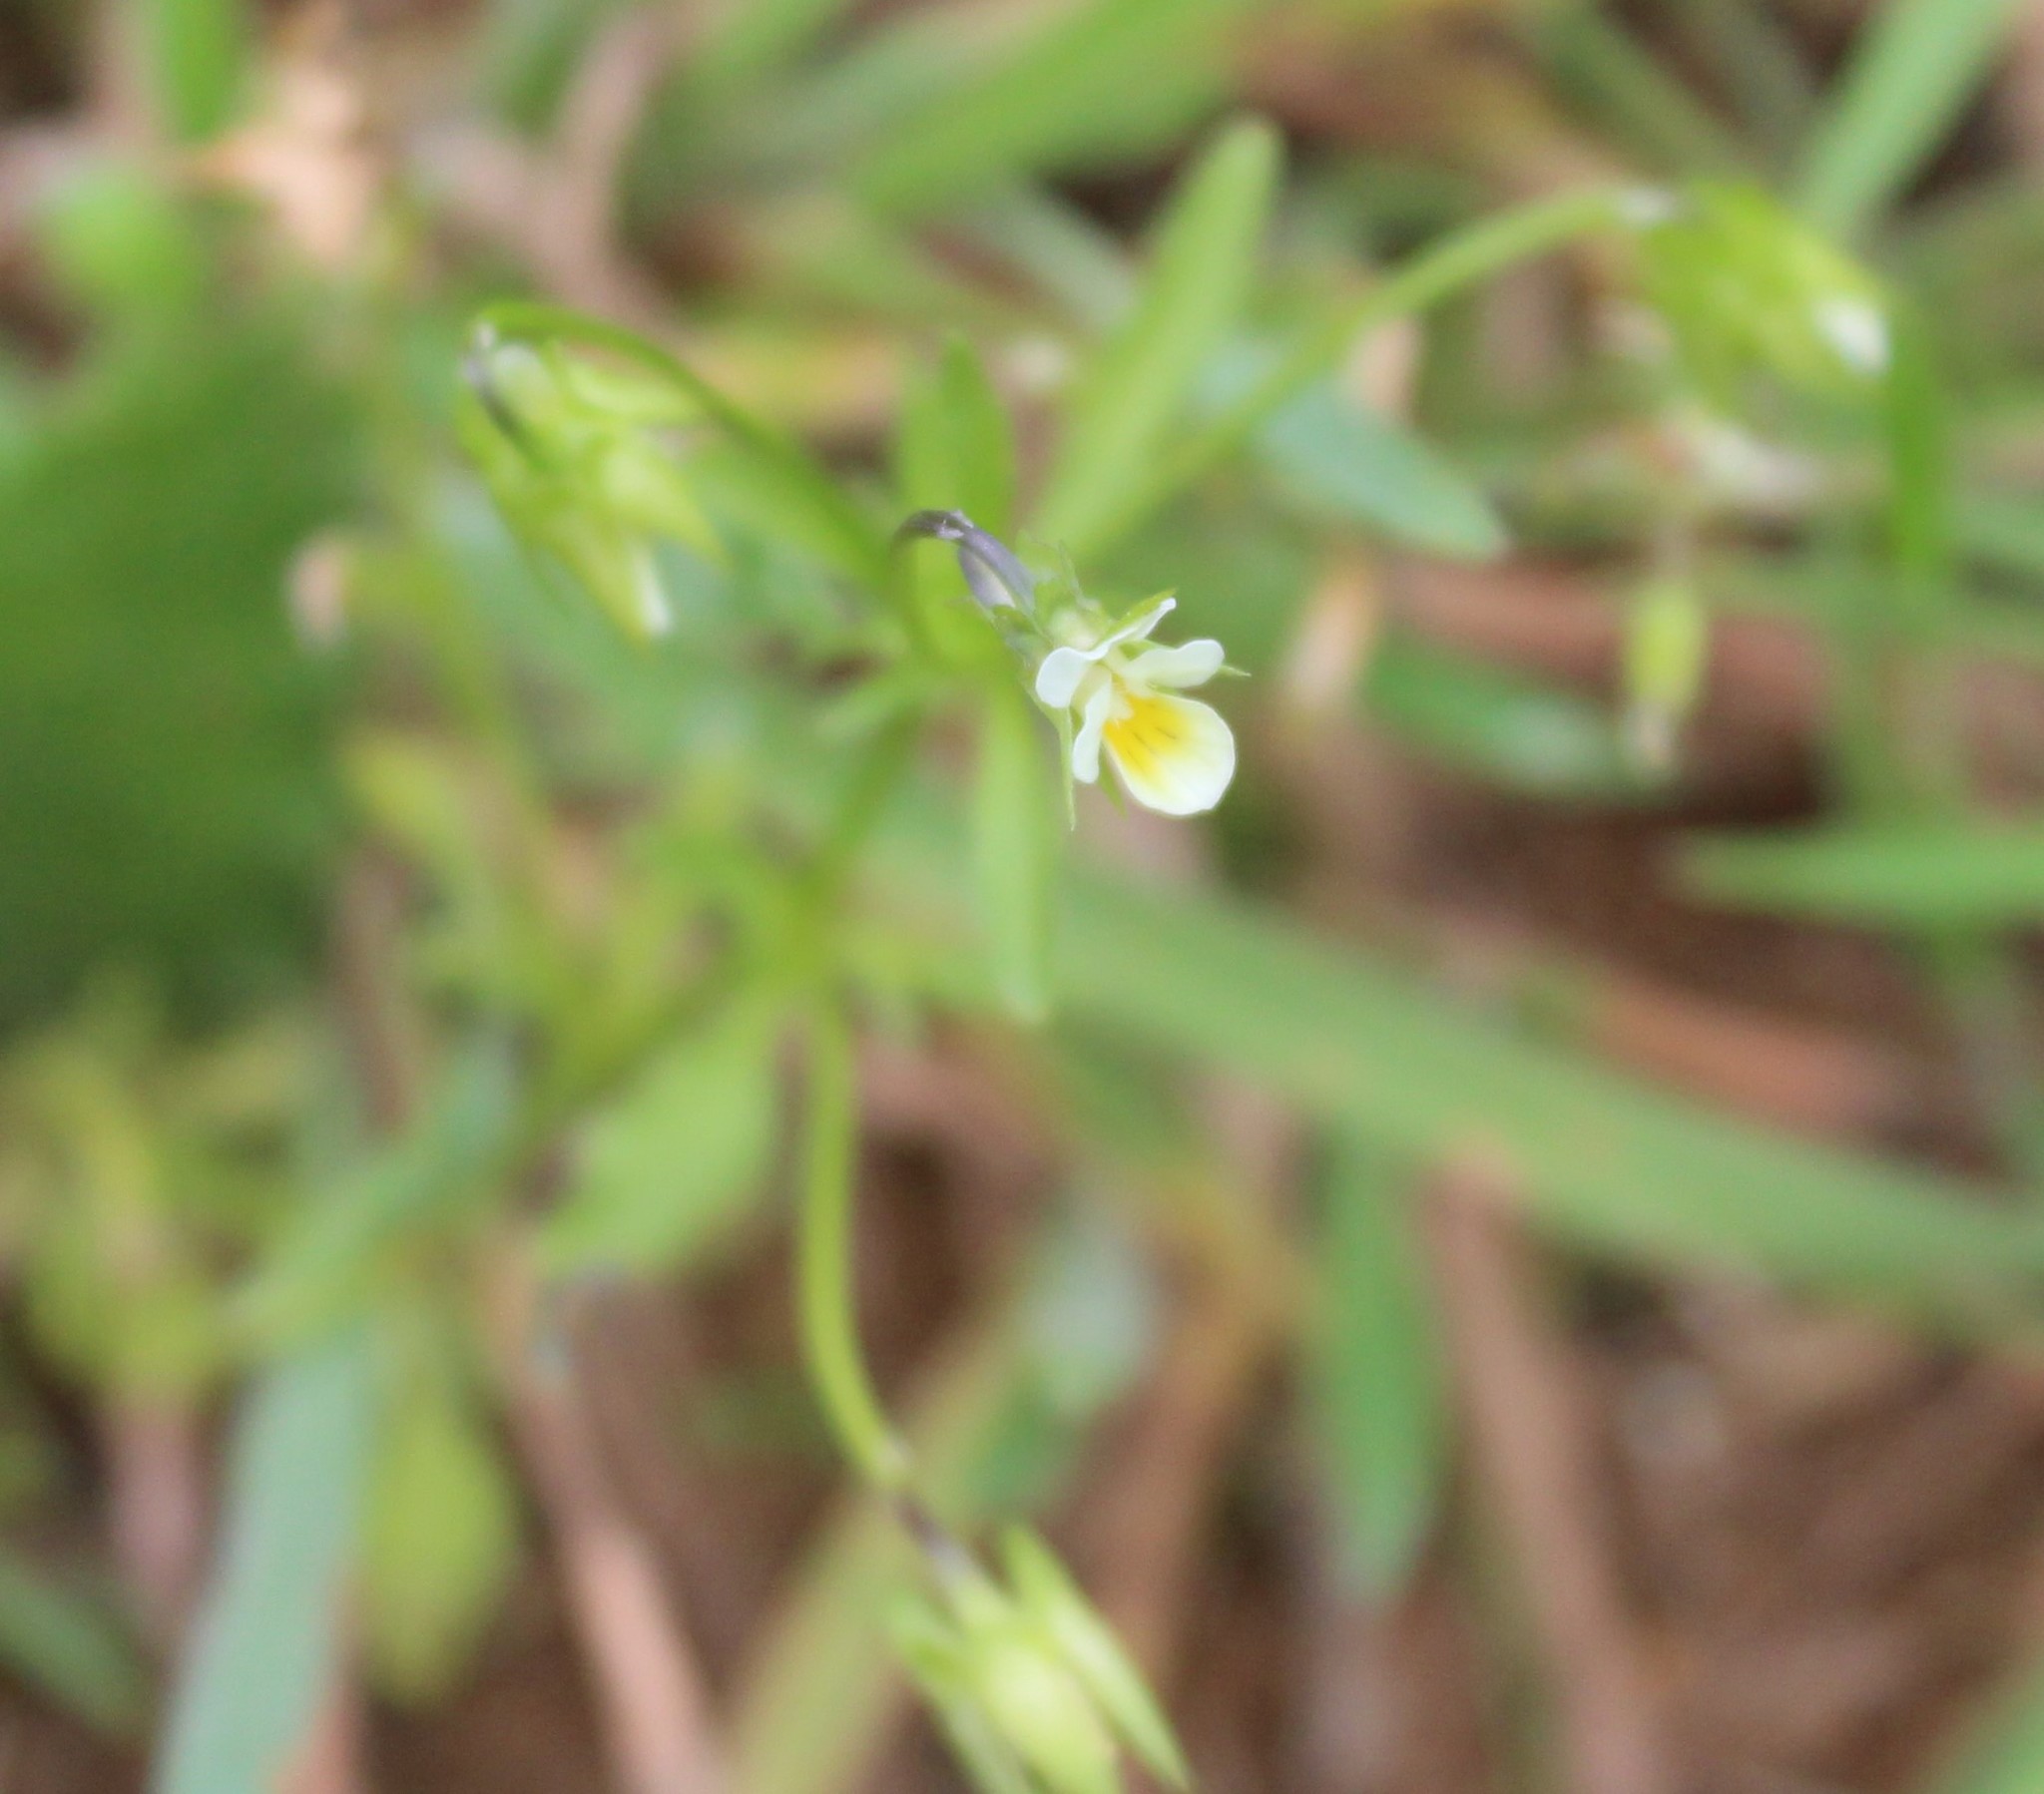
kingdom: Plantae
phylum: Tracheophyta
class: Magnoliopsida
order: Malpighiales
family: Violaceae
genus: Viola
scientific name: Viola arvensis
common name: Field pansy
